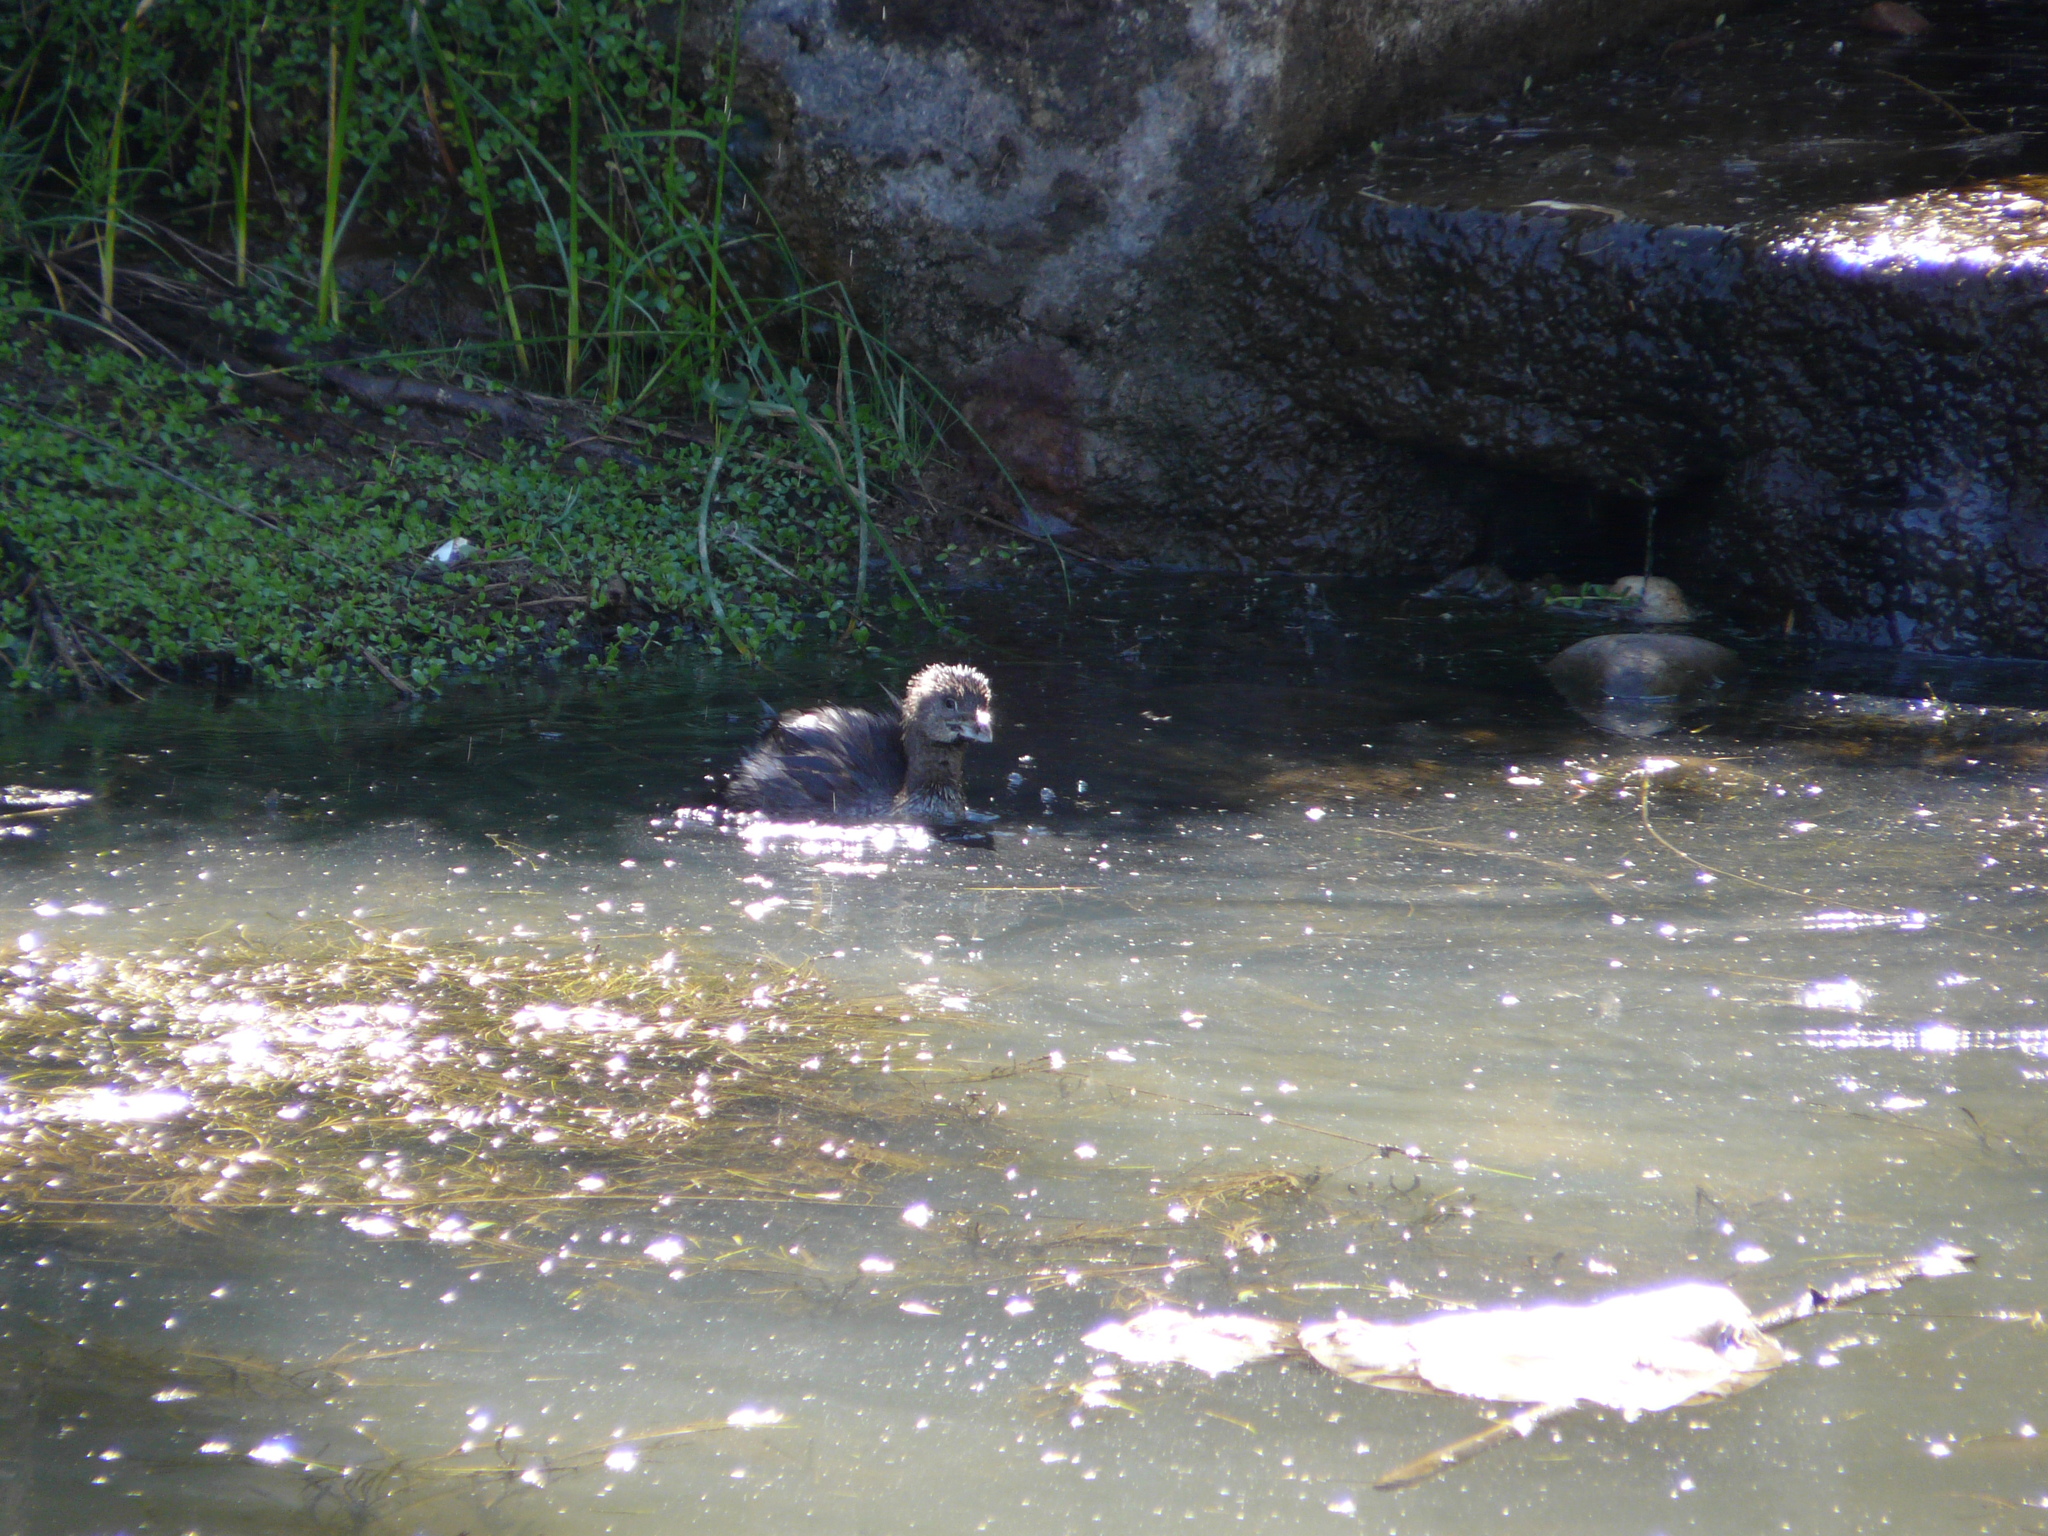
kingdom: Animalia
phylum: Chordata
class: Aves
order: Podicipediformes
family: Podicipedidae
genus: Podilymbus
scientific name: Podilymbus podiceps
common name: Pied-billed grebe
